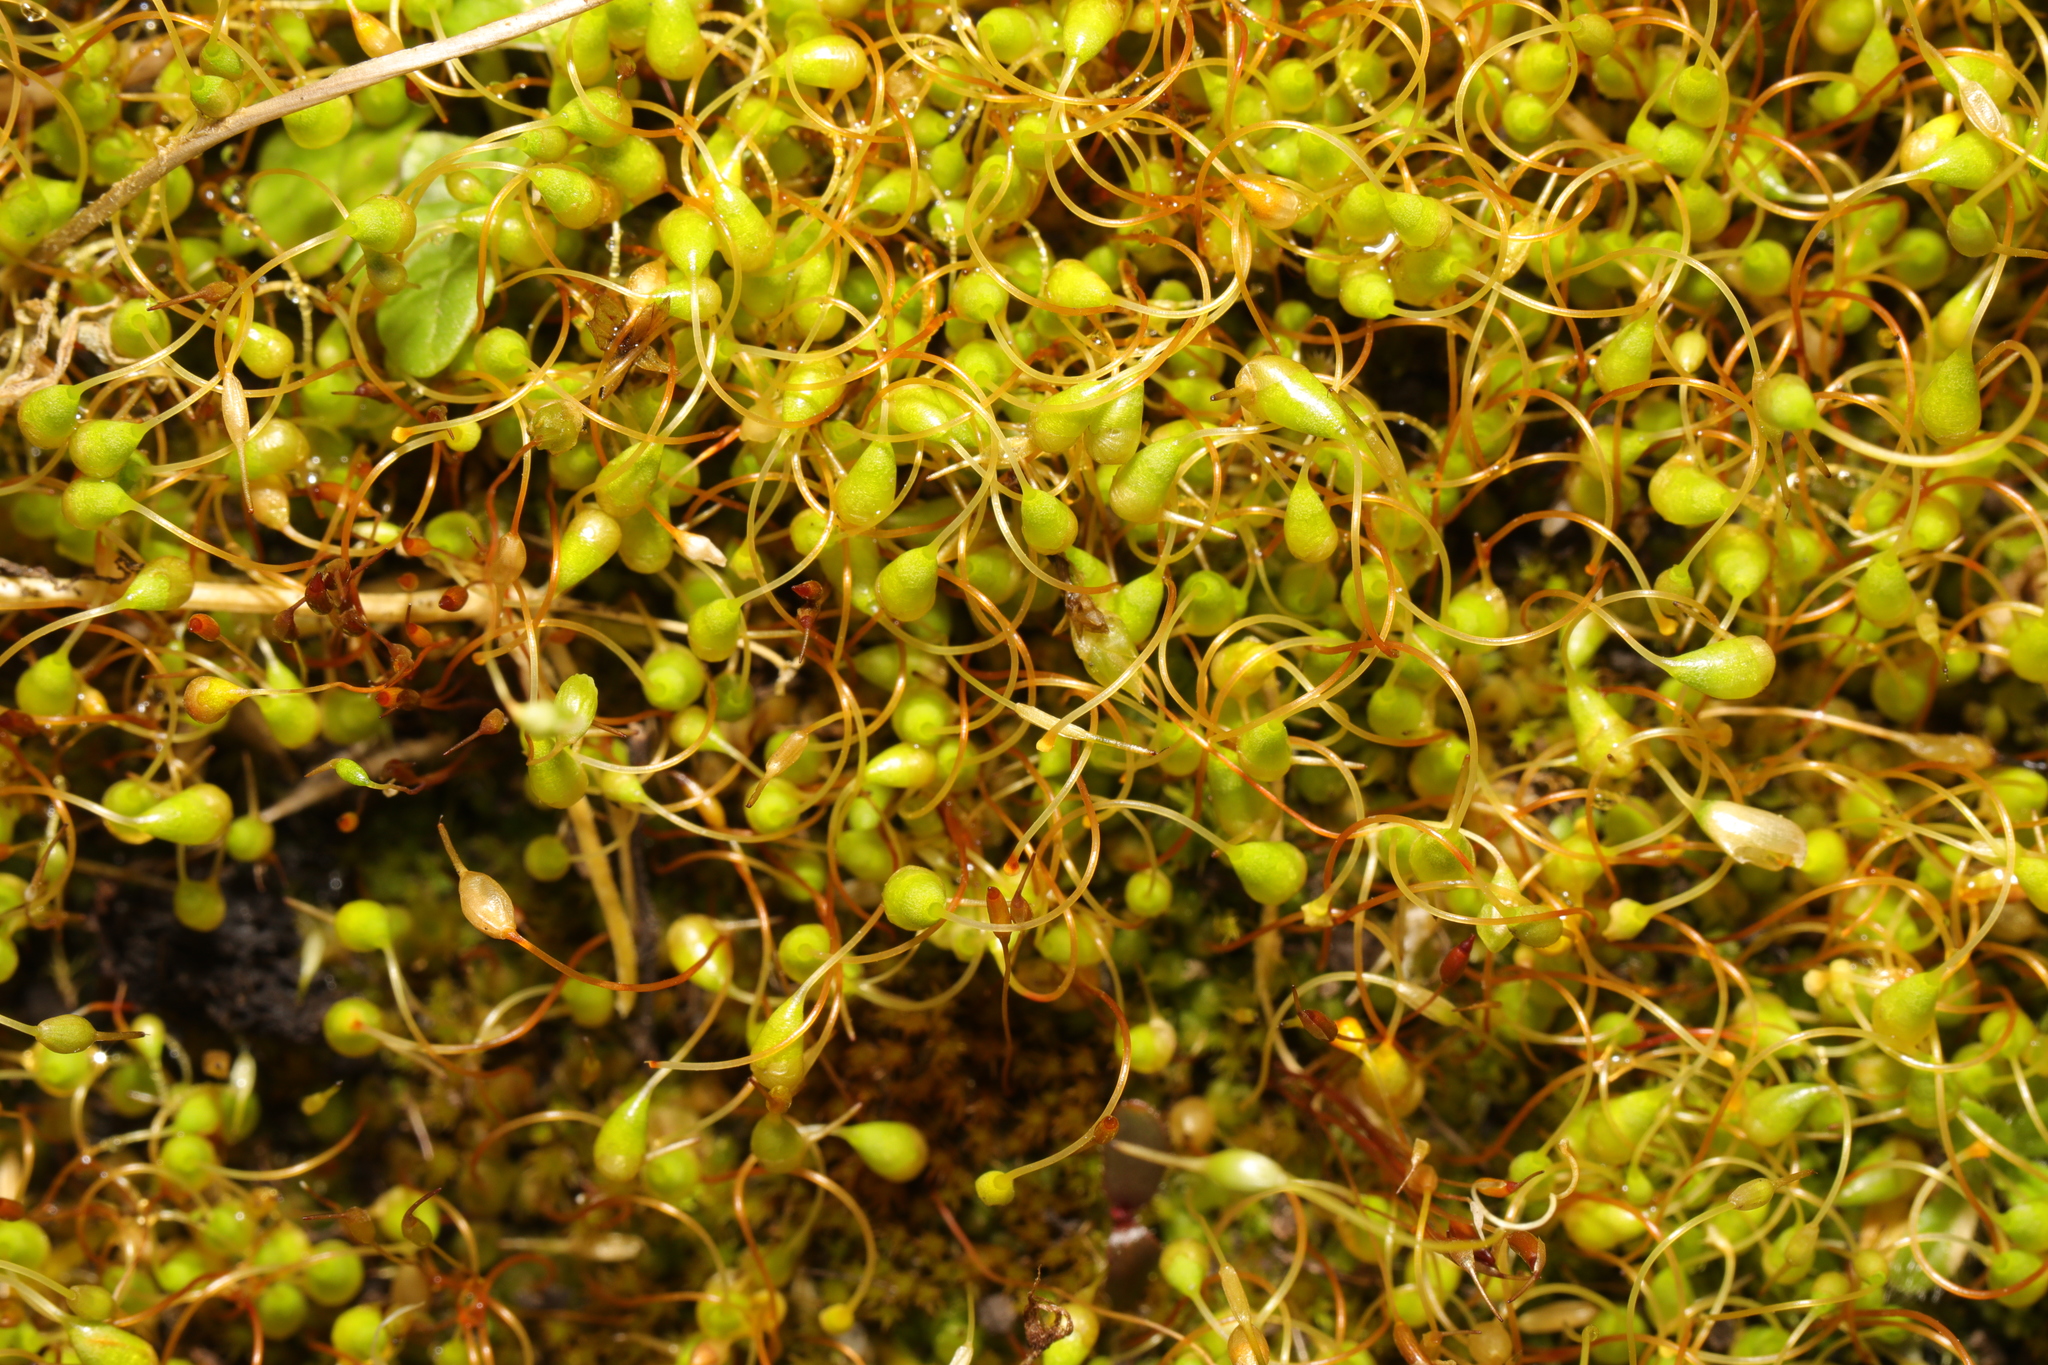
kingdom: Plantae
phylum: Bryophyta
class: Bryopsida
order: Funariales
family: Funariaceae
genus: Funaria
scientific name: Funaria hygrometrica
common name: Common cord moss
